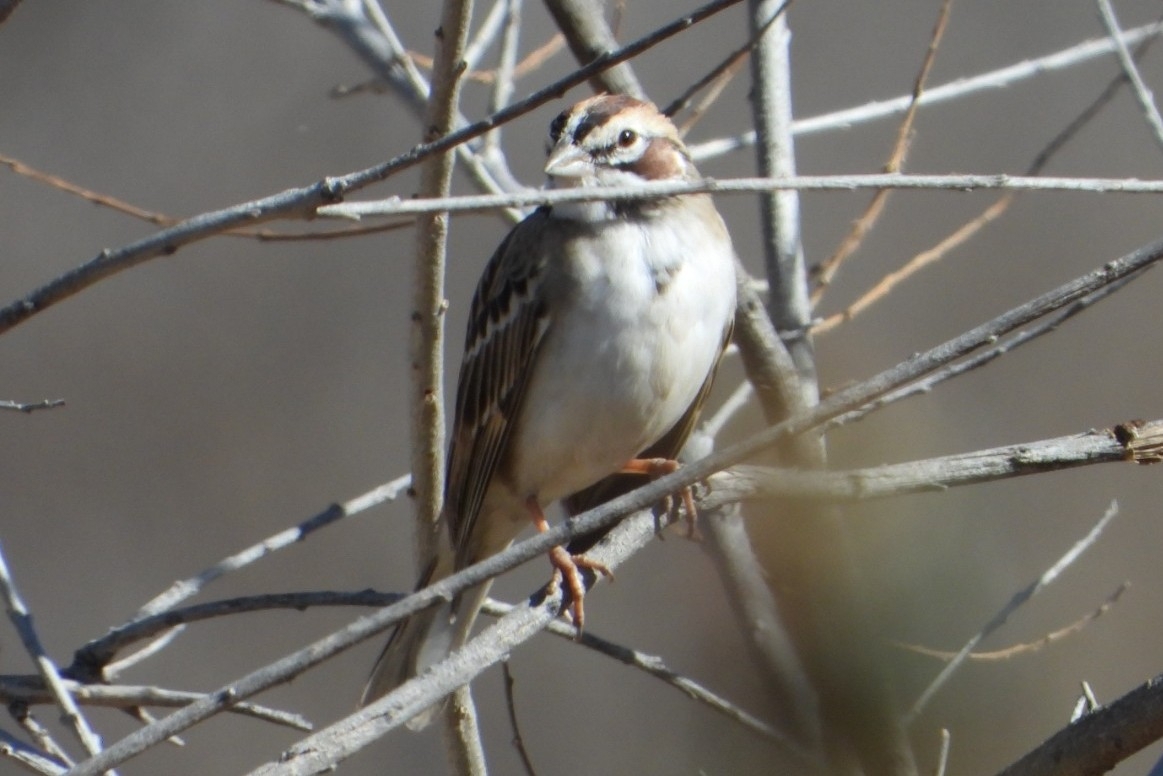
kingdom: Animalia
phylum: Chordata
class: Aves
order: Passeriformes
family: Passerellidae
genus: Chondestes
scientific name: Chondestes grammacus
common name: Lark sparrow
